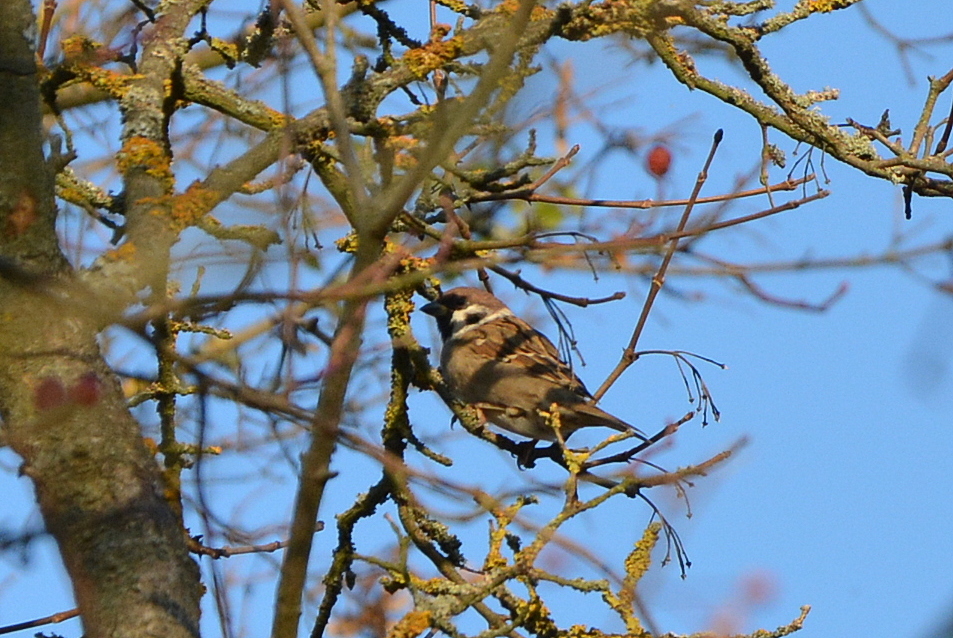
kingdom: Animalia
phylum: Chordata
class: Aves
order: Passeriformes
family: Passeridae
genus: Passer
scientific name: Passer montanus
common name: Eurasian tree sparrow
